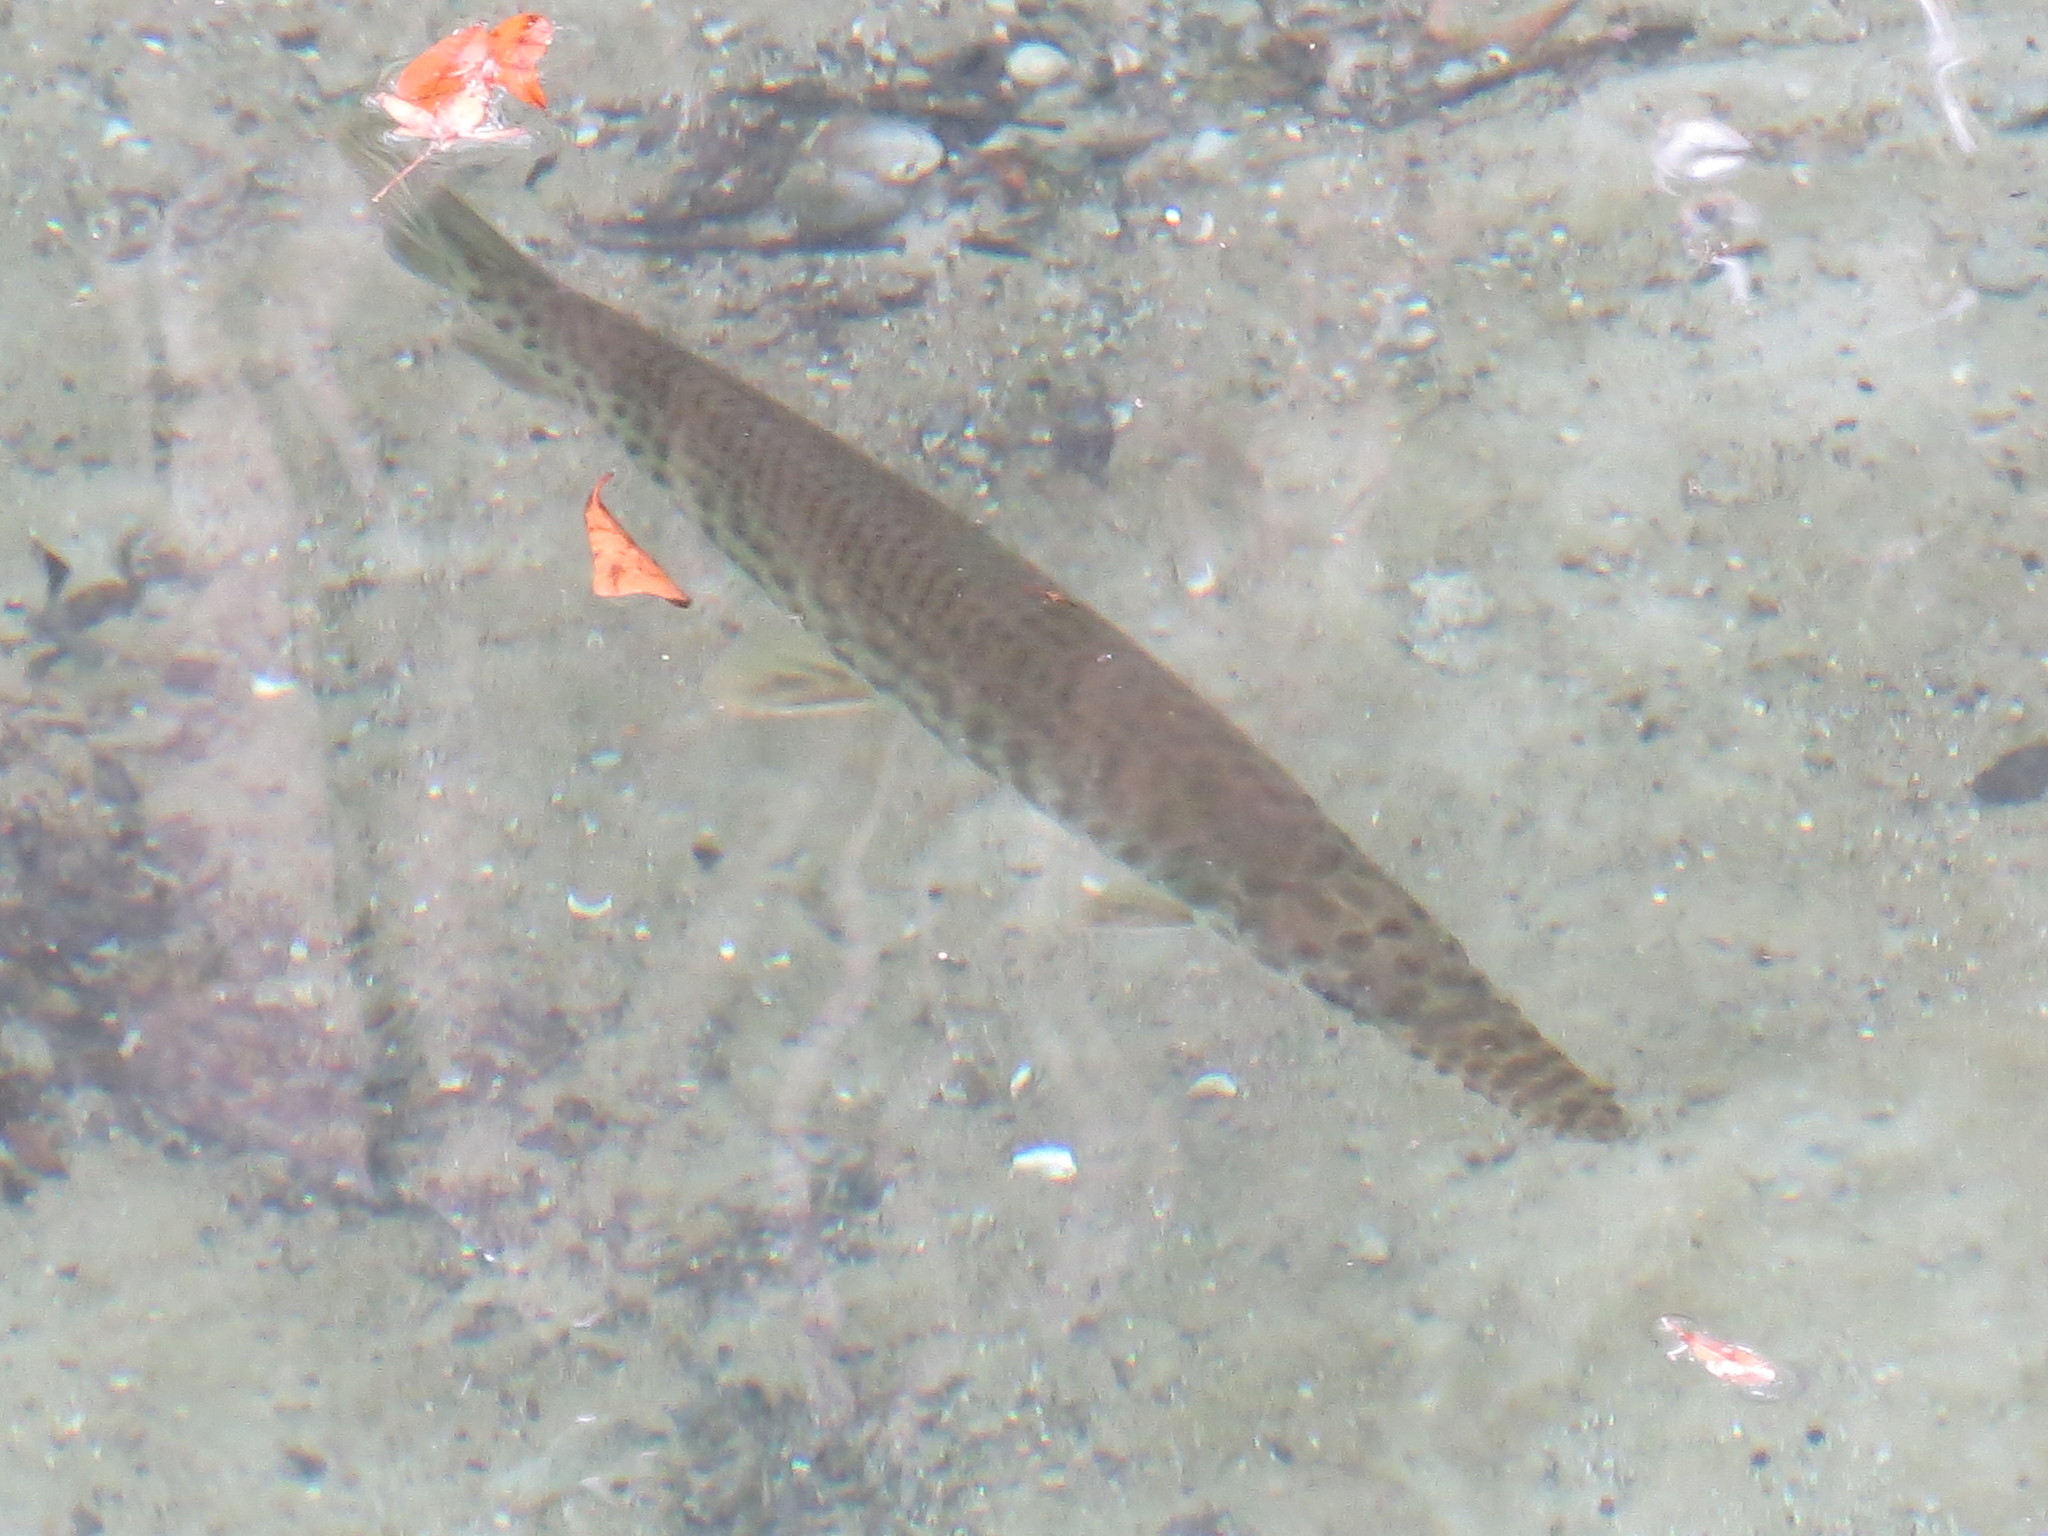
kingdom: Animalia
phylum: Chordata
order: Lepisosteiformes
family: Lepisosteidae
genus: Lepisosteus
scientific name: Lepisosteus platyrhincus
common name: Florida gar
